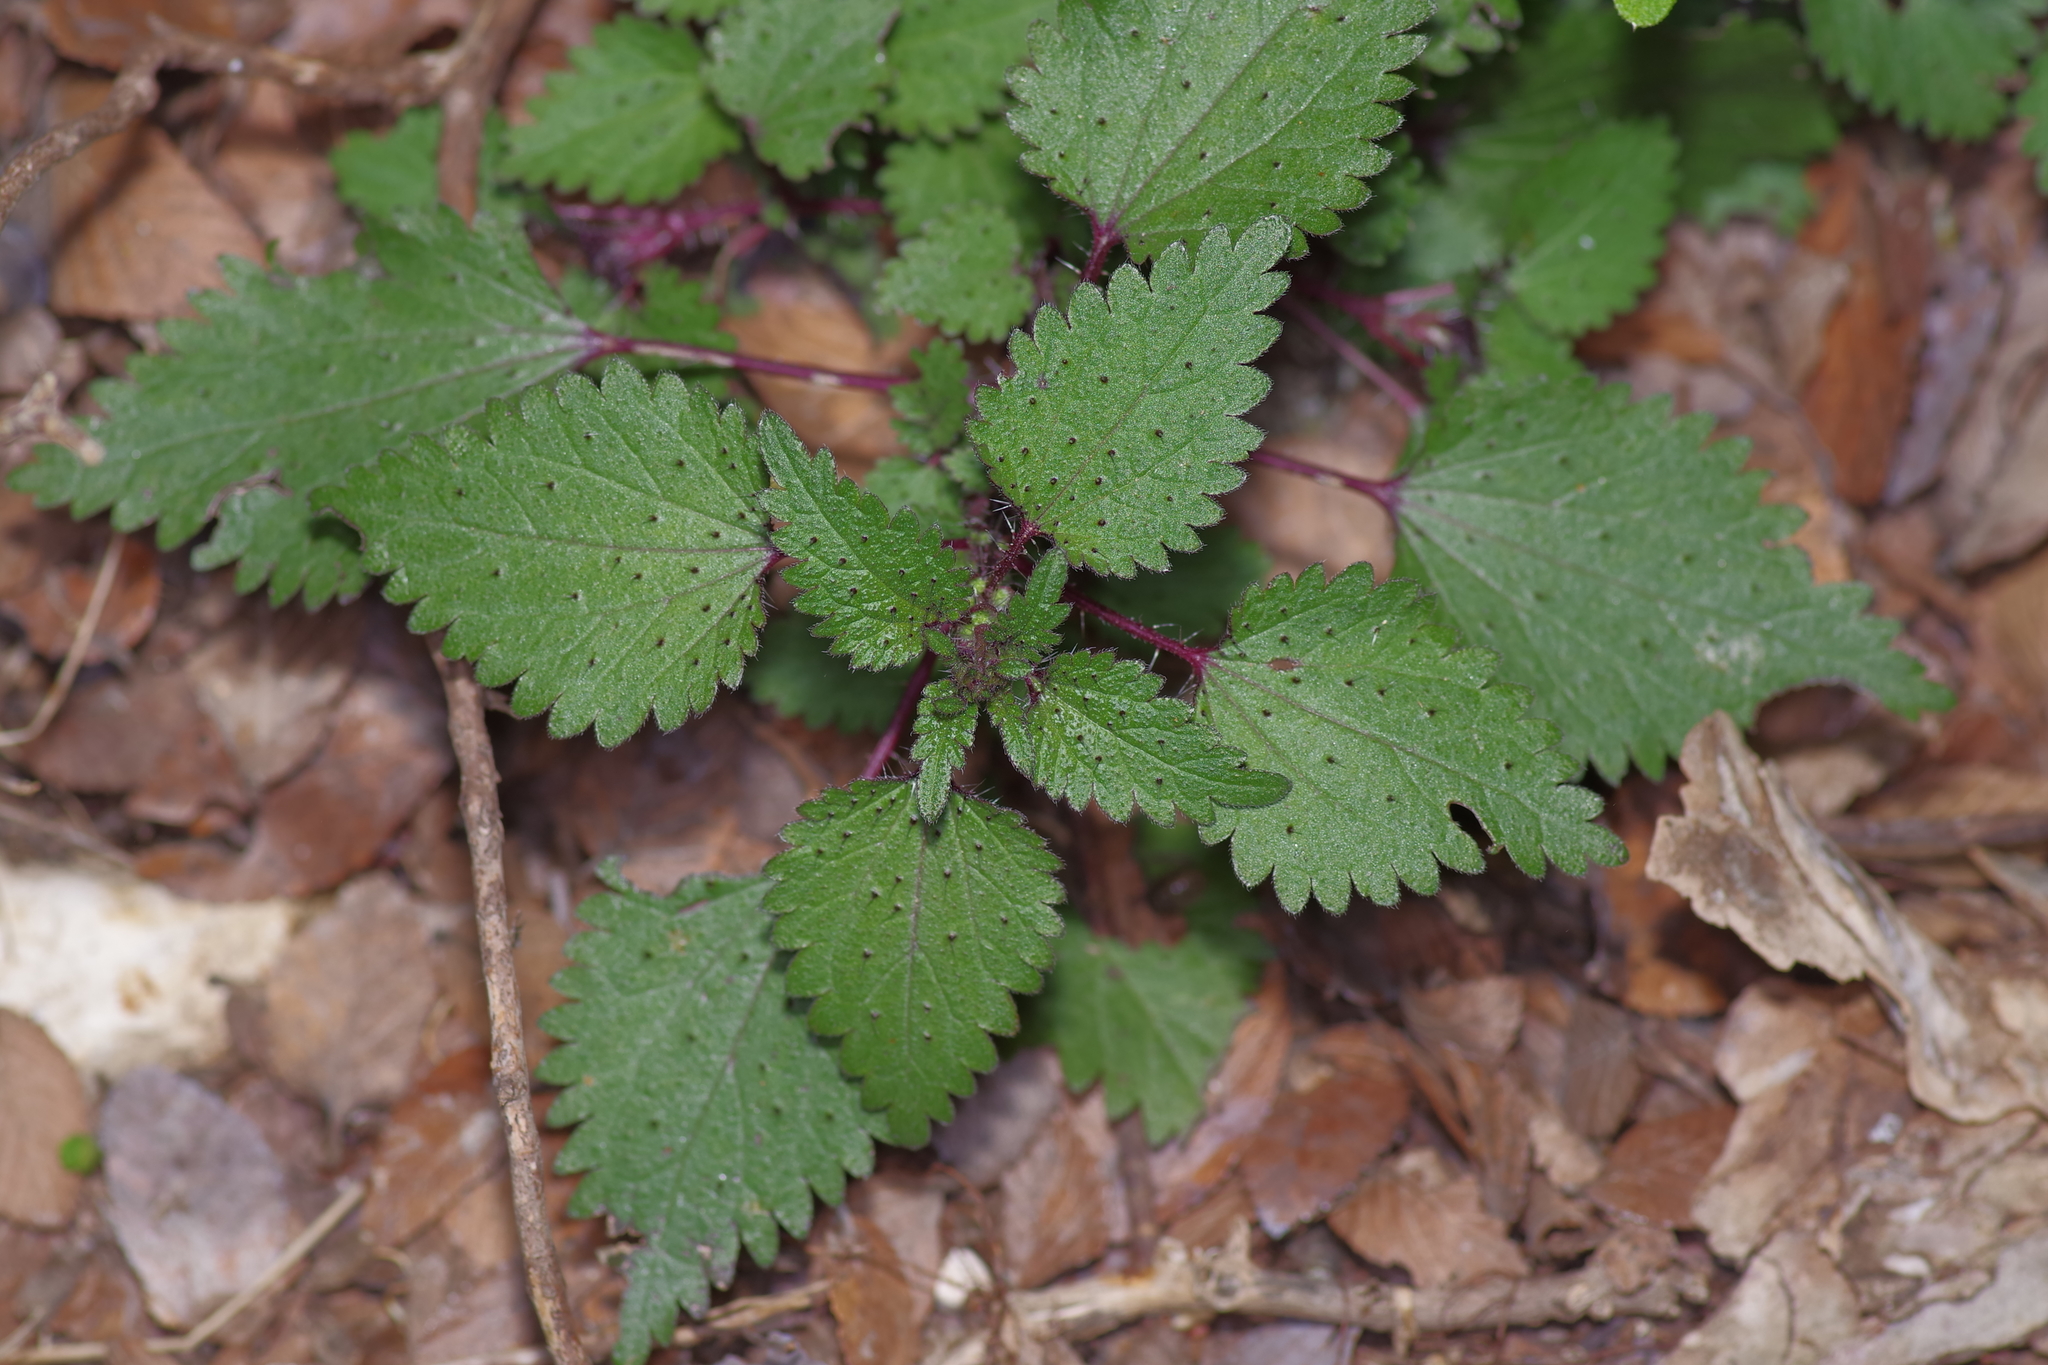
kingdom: Plantae
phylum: Tracheophyta
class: Magnoliopsida
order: Rosales
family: Urticaceae
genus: Urtica
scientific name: Urtica chamaedryoides
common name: Heart-leaf nettle
